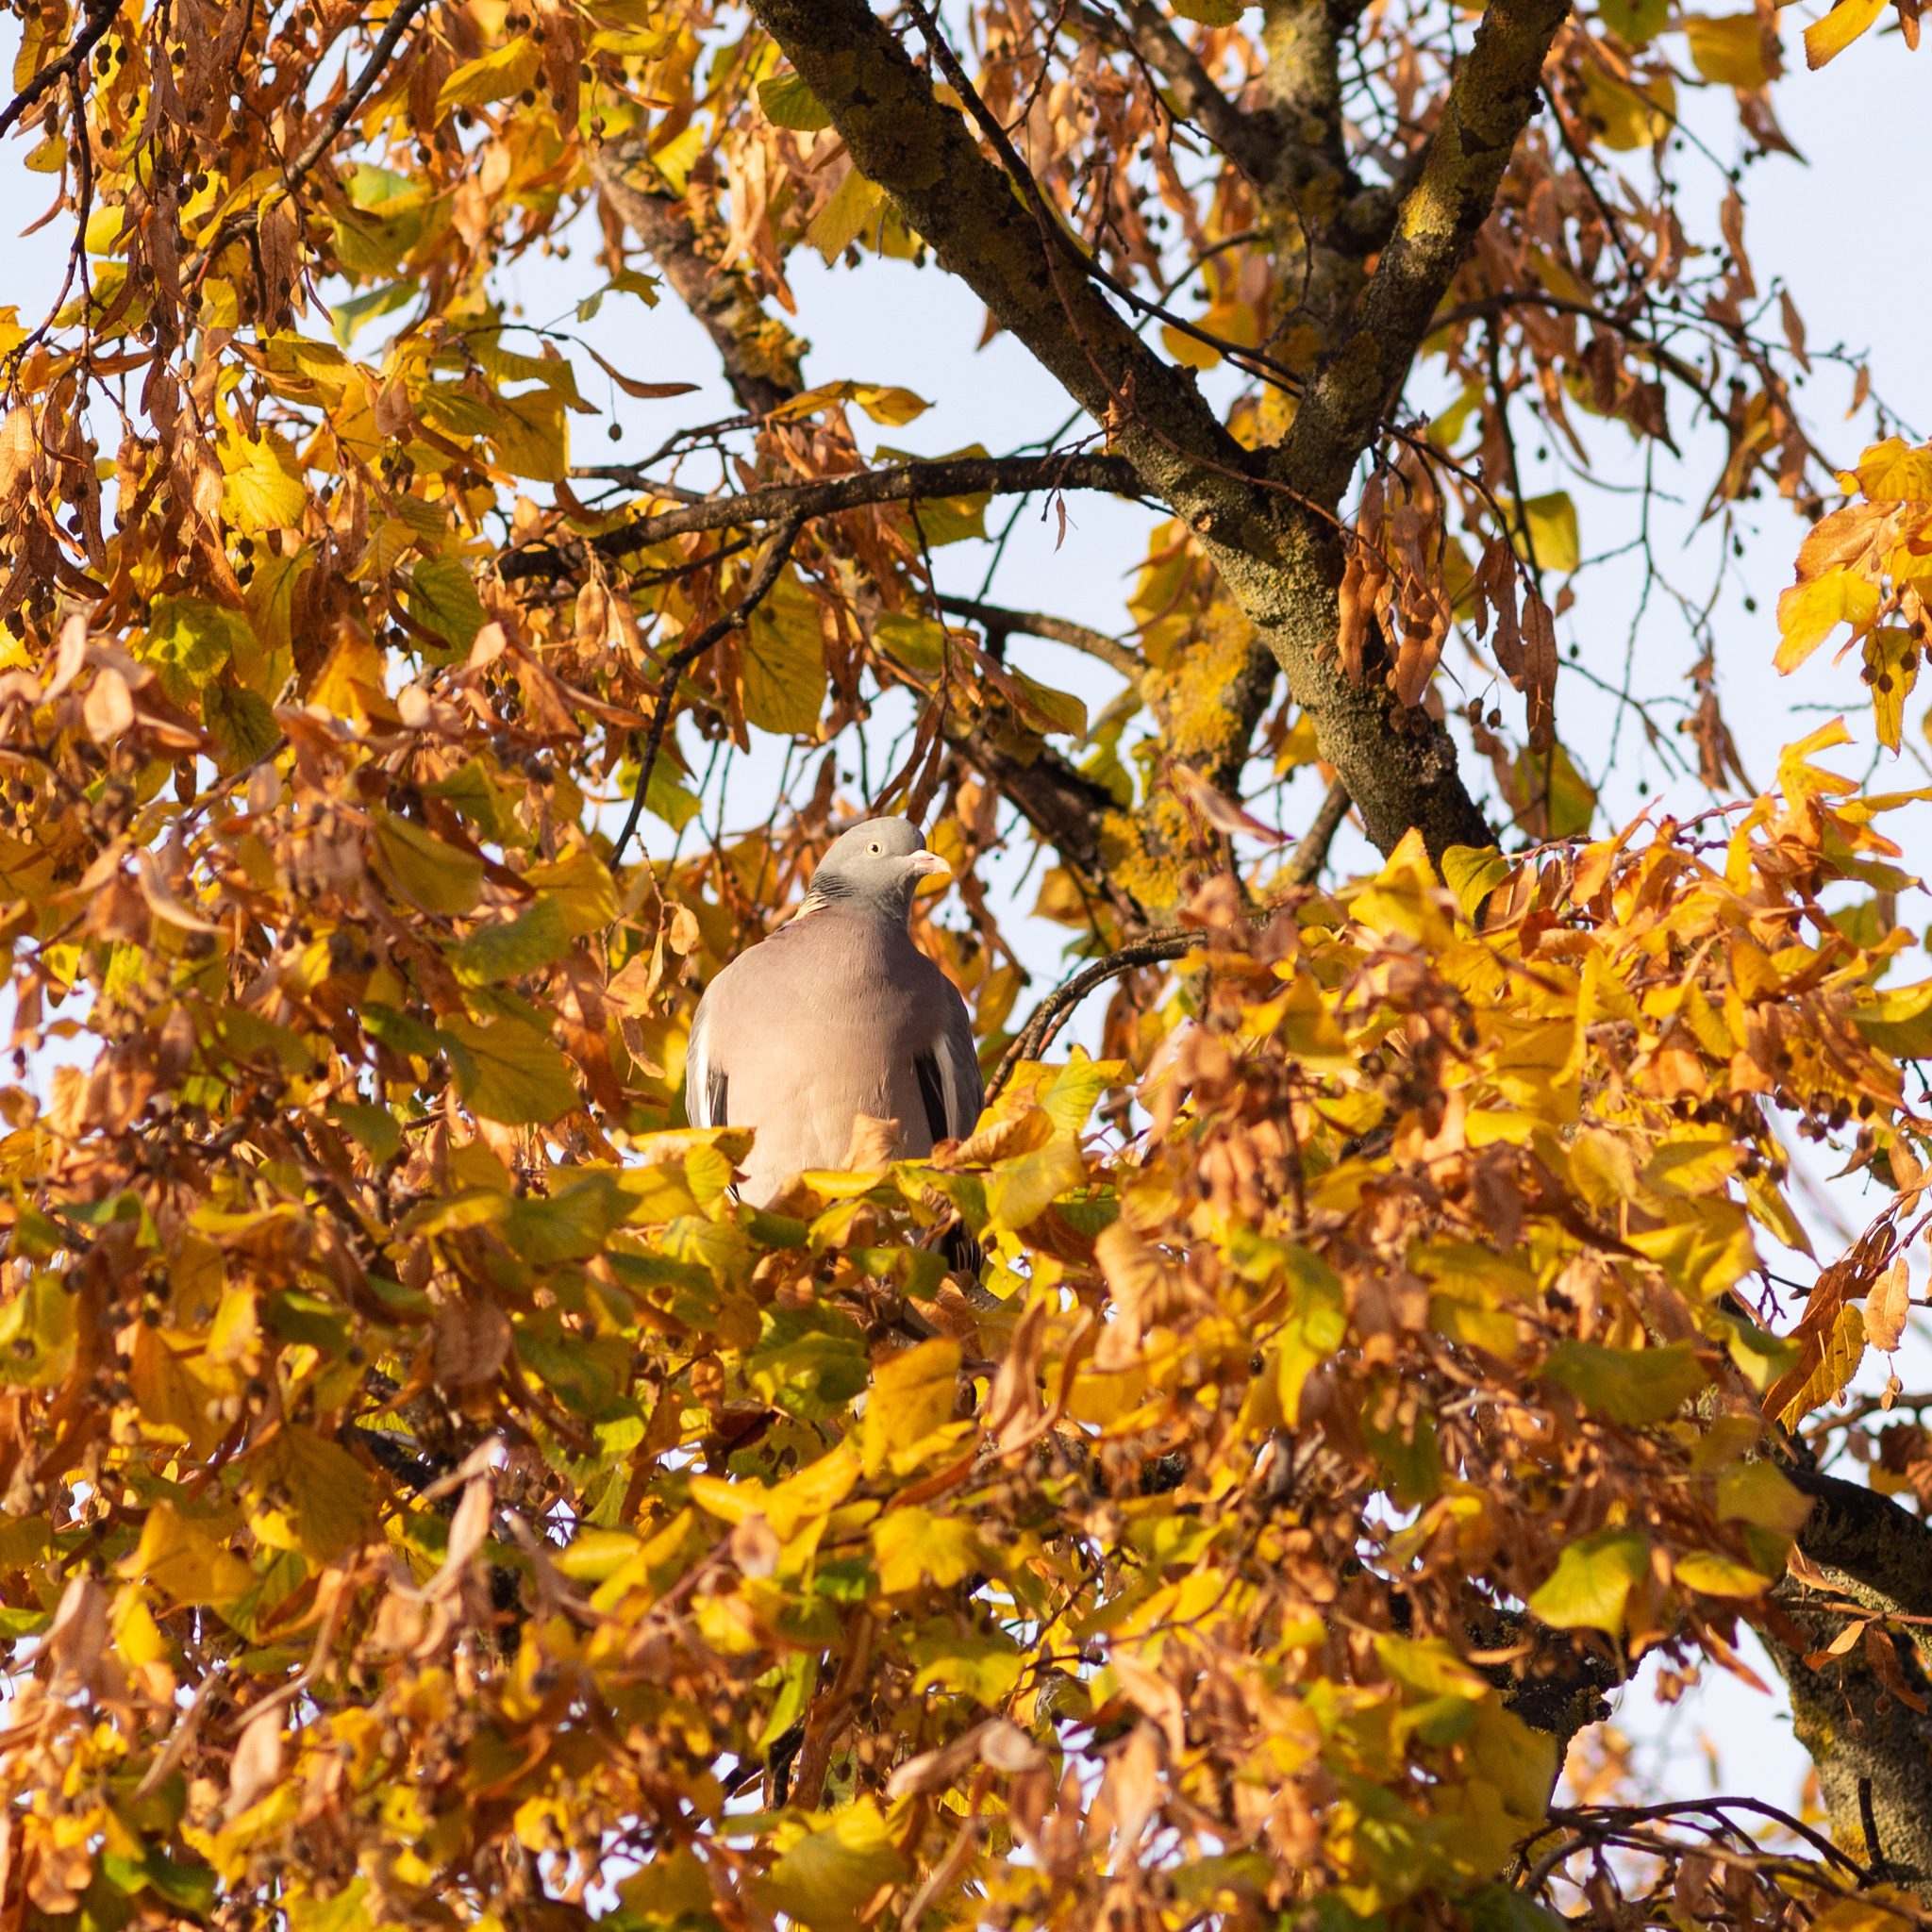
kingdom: Animalia
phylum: Chordata
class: Aves
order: Columbiformes
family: Columbidae
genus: Columba
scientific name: Columba palumbus
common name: Common wood pigeon
